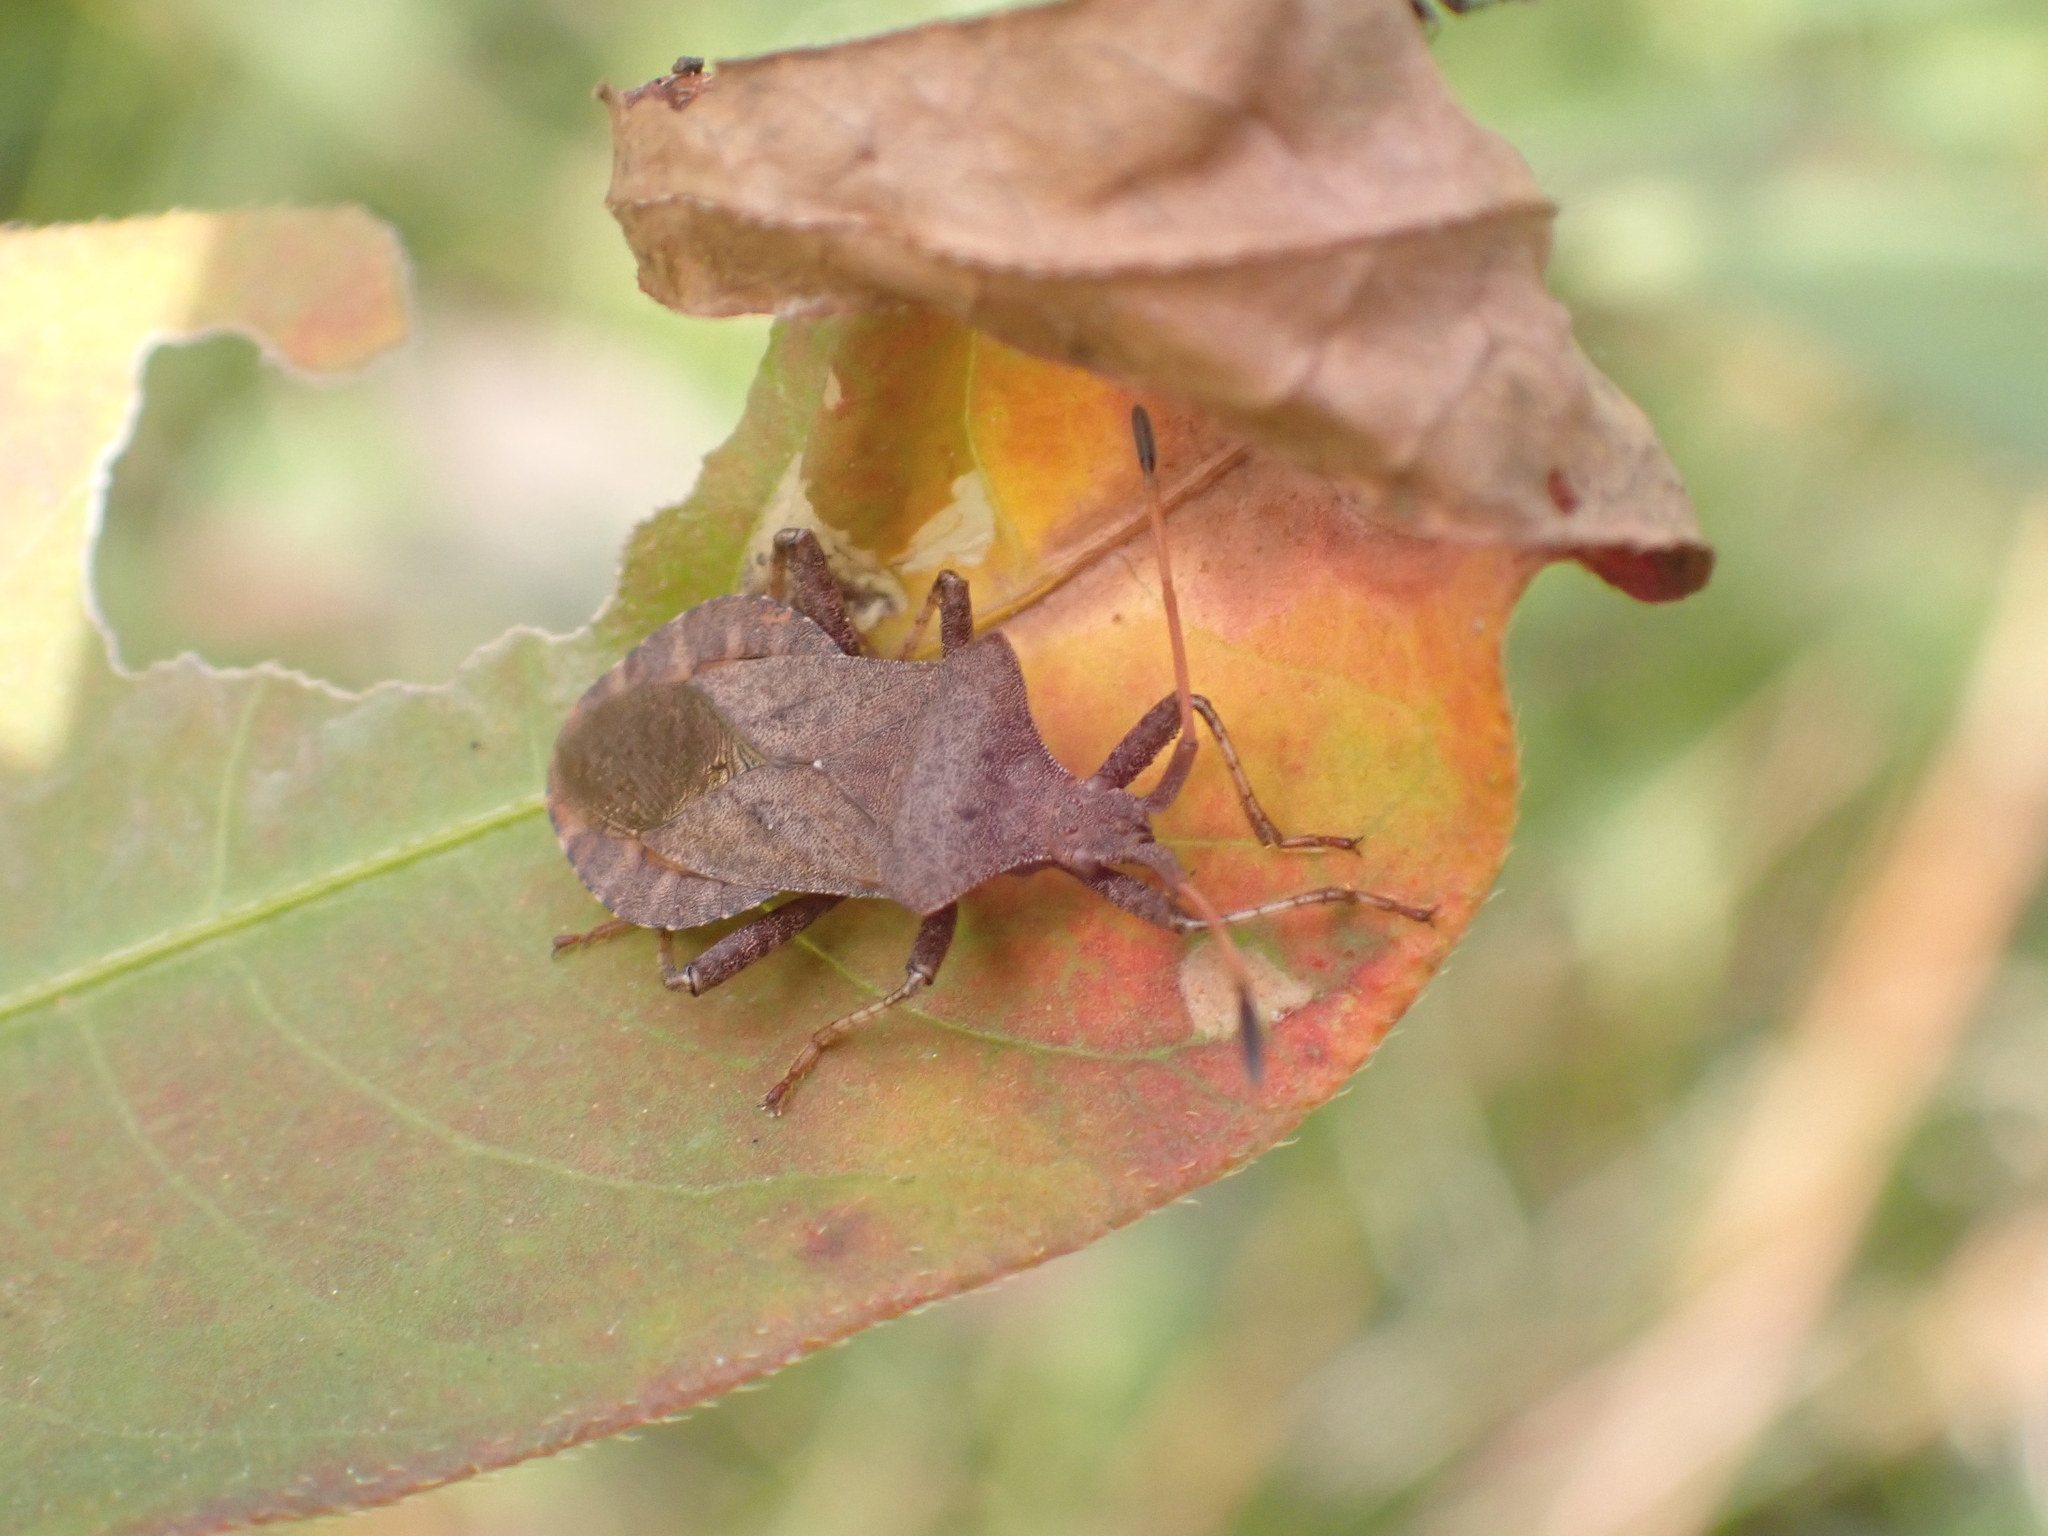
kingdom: Animalia
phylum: Arthropoda
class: Insecta
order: Hemiptera
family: Coreidae
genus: Coreus
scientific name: Coreus marginatus
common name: Dock bug
